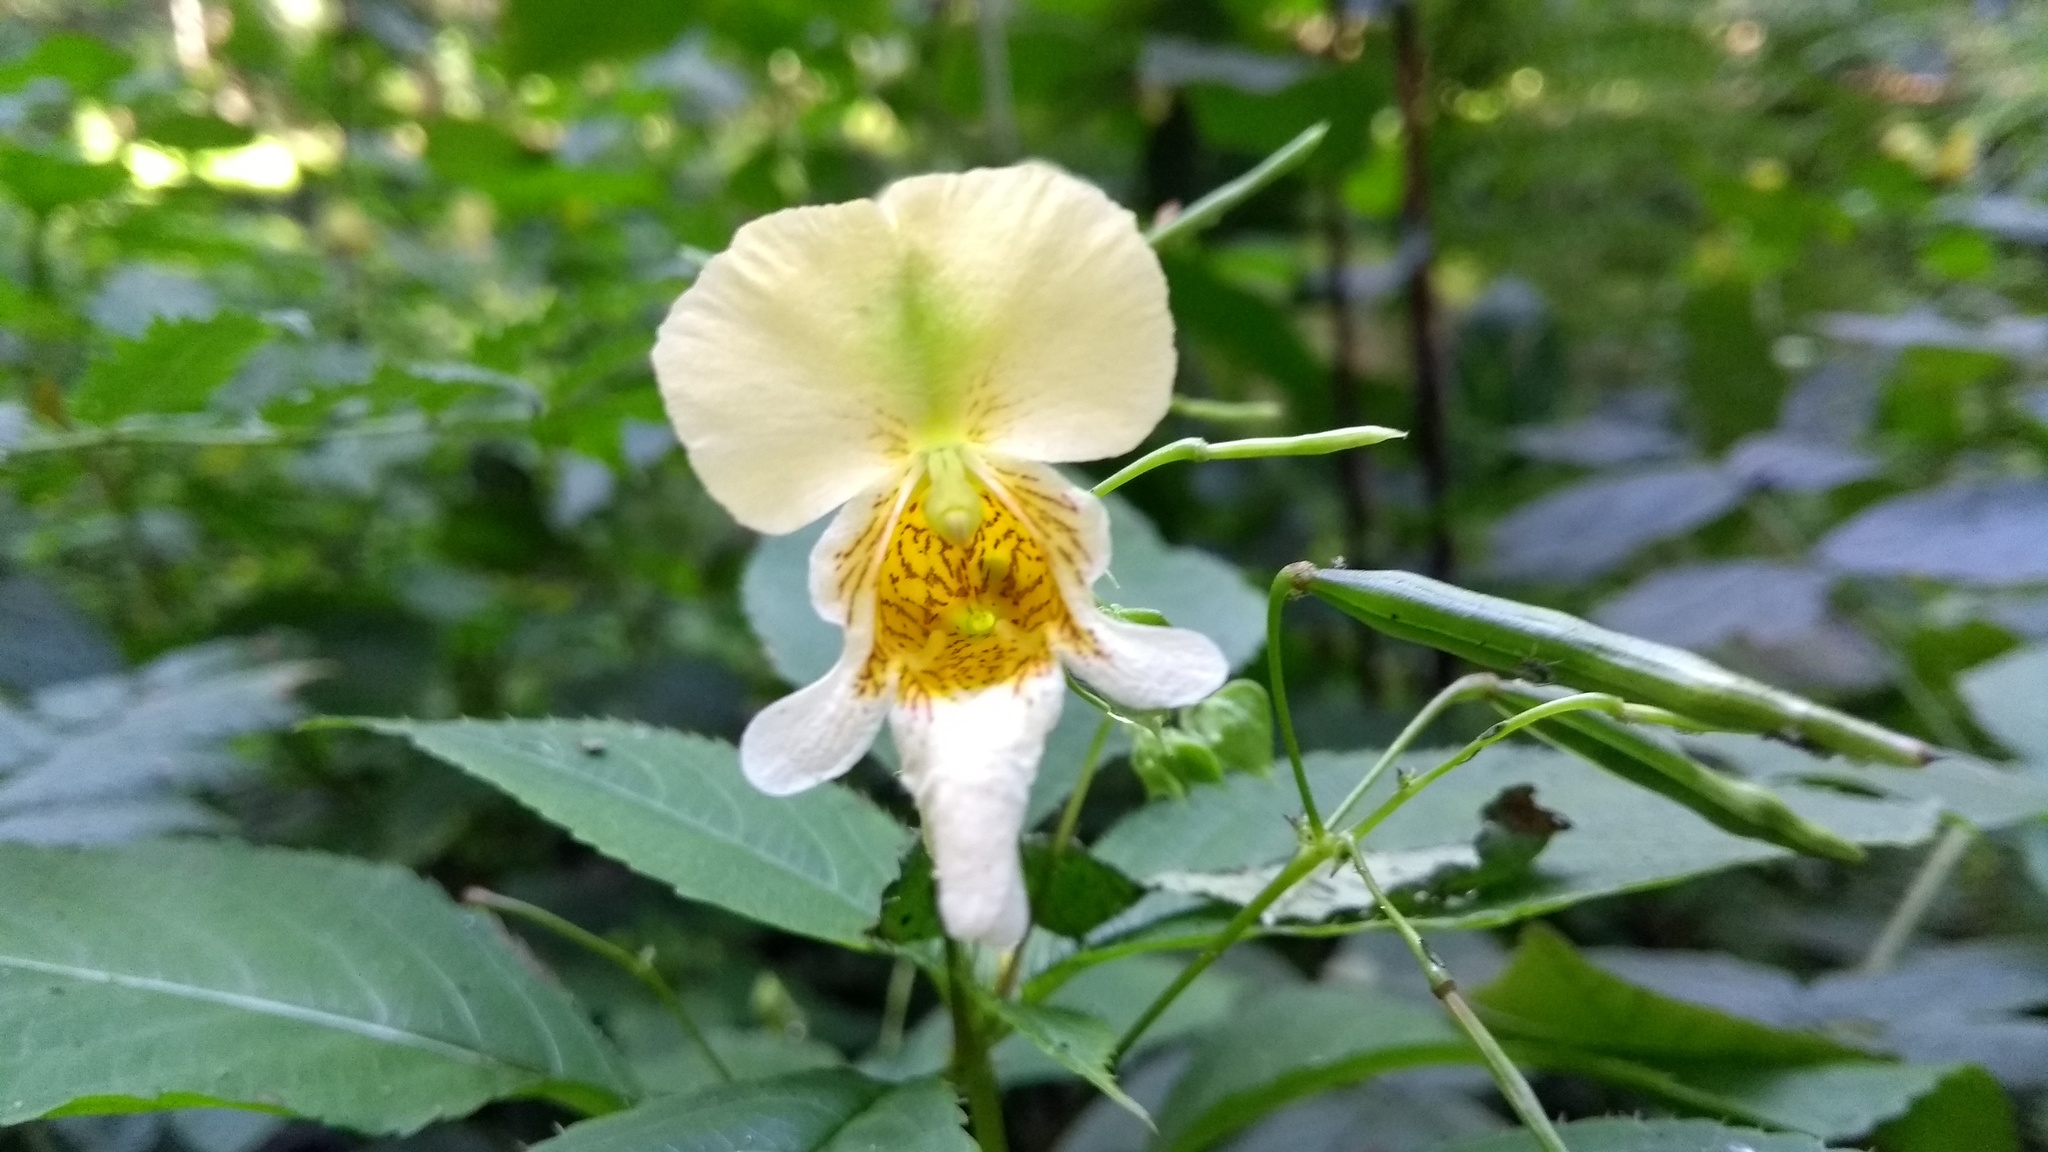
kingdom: Plantae
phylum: Tracheophyta
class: Magnoliopsida
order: Ericales
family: Balsaminaceae
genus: Impatiens
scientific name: Impatiens edgeworthii
